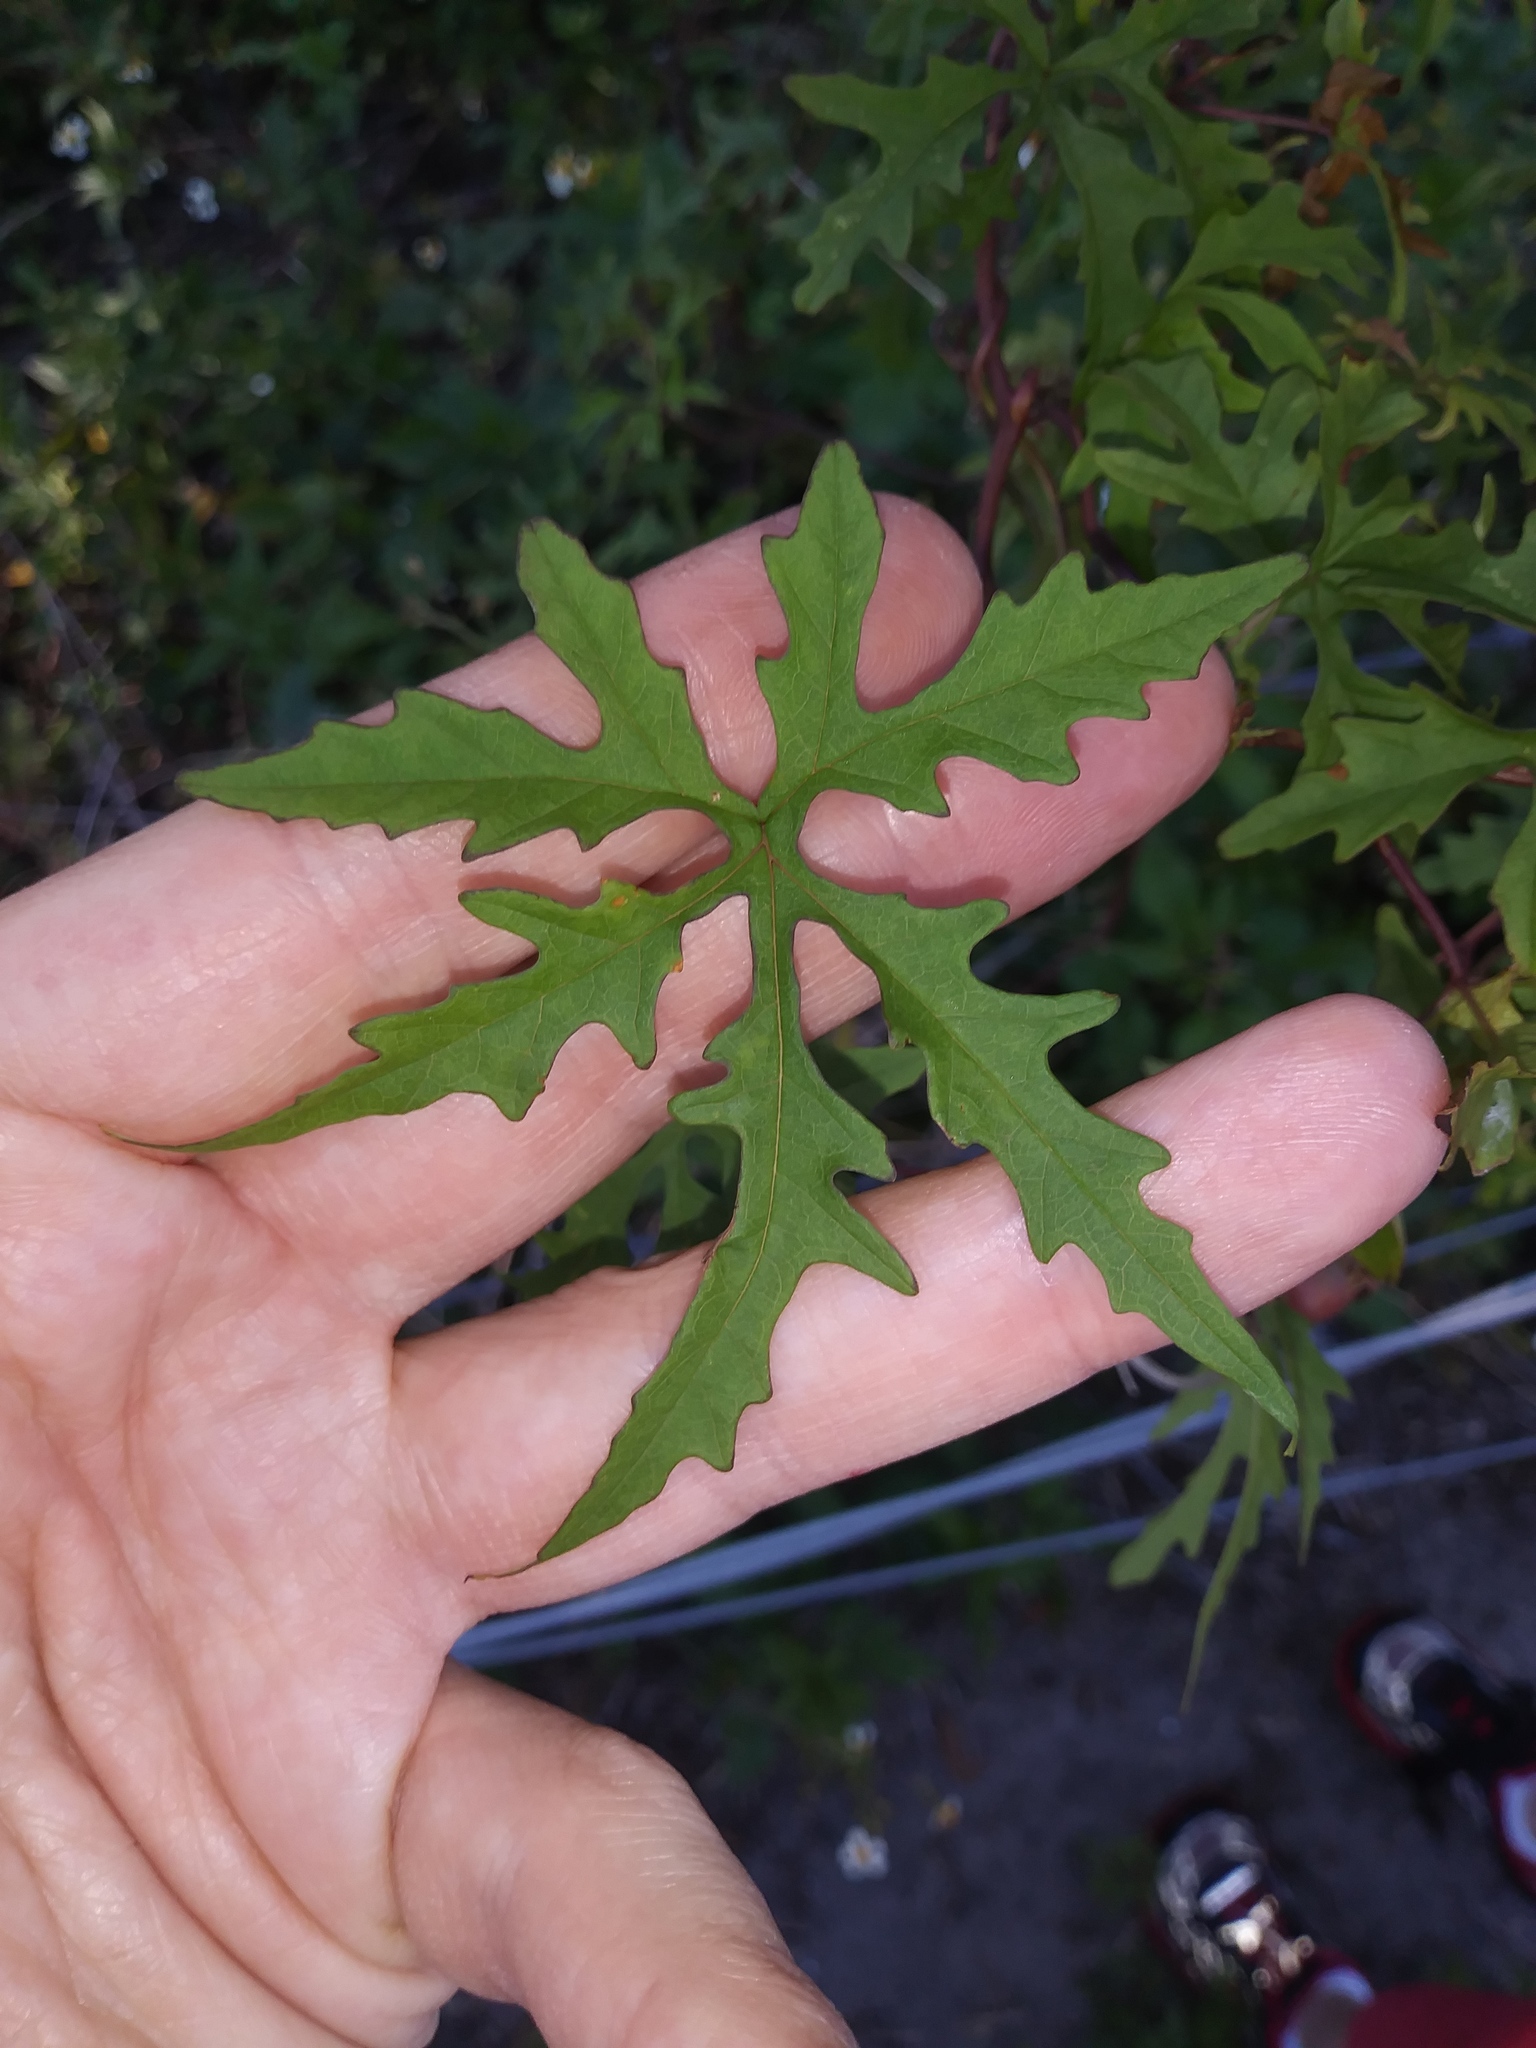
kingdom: Plantae
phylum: Tracheophyta
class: Magnoliopsida
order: Solanales
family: Convolvulaceae
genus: Distimake
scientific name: Distimake dissectus
